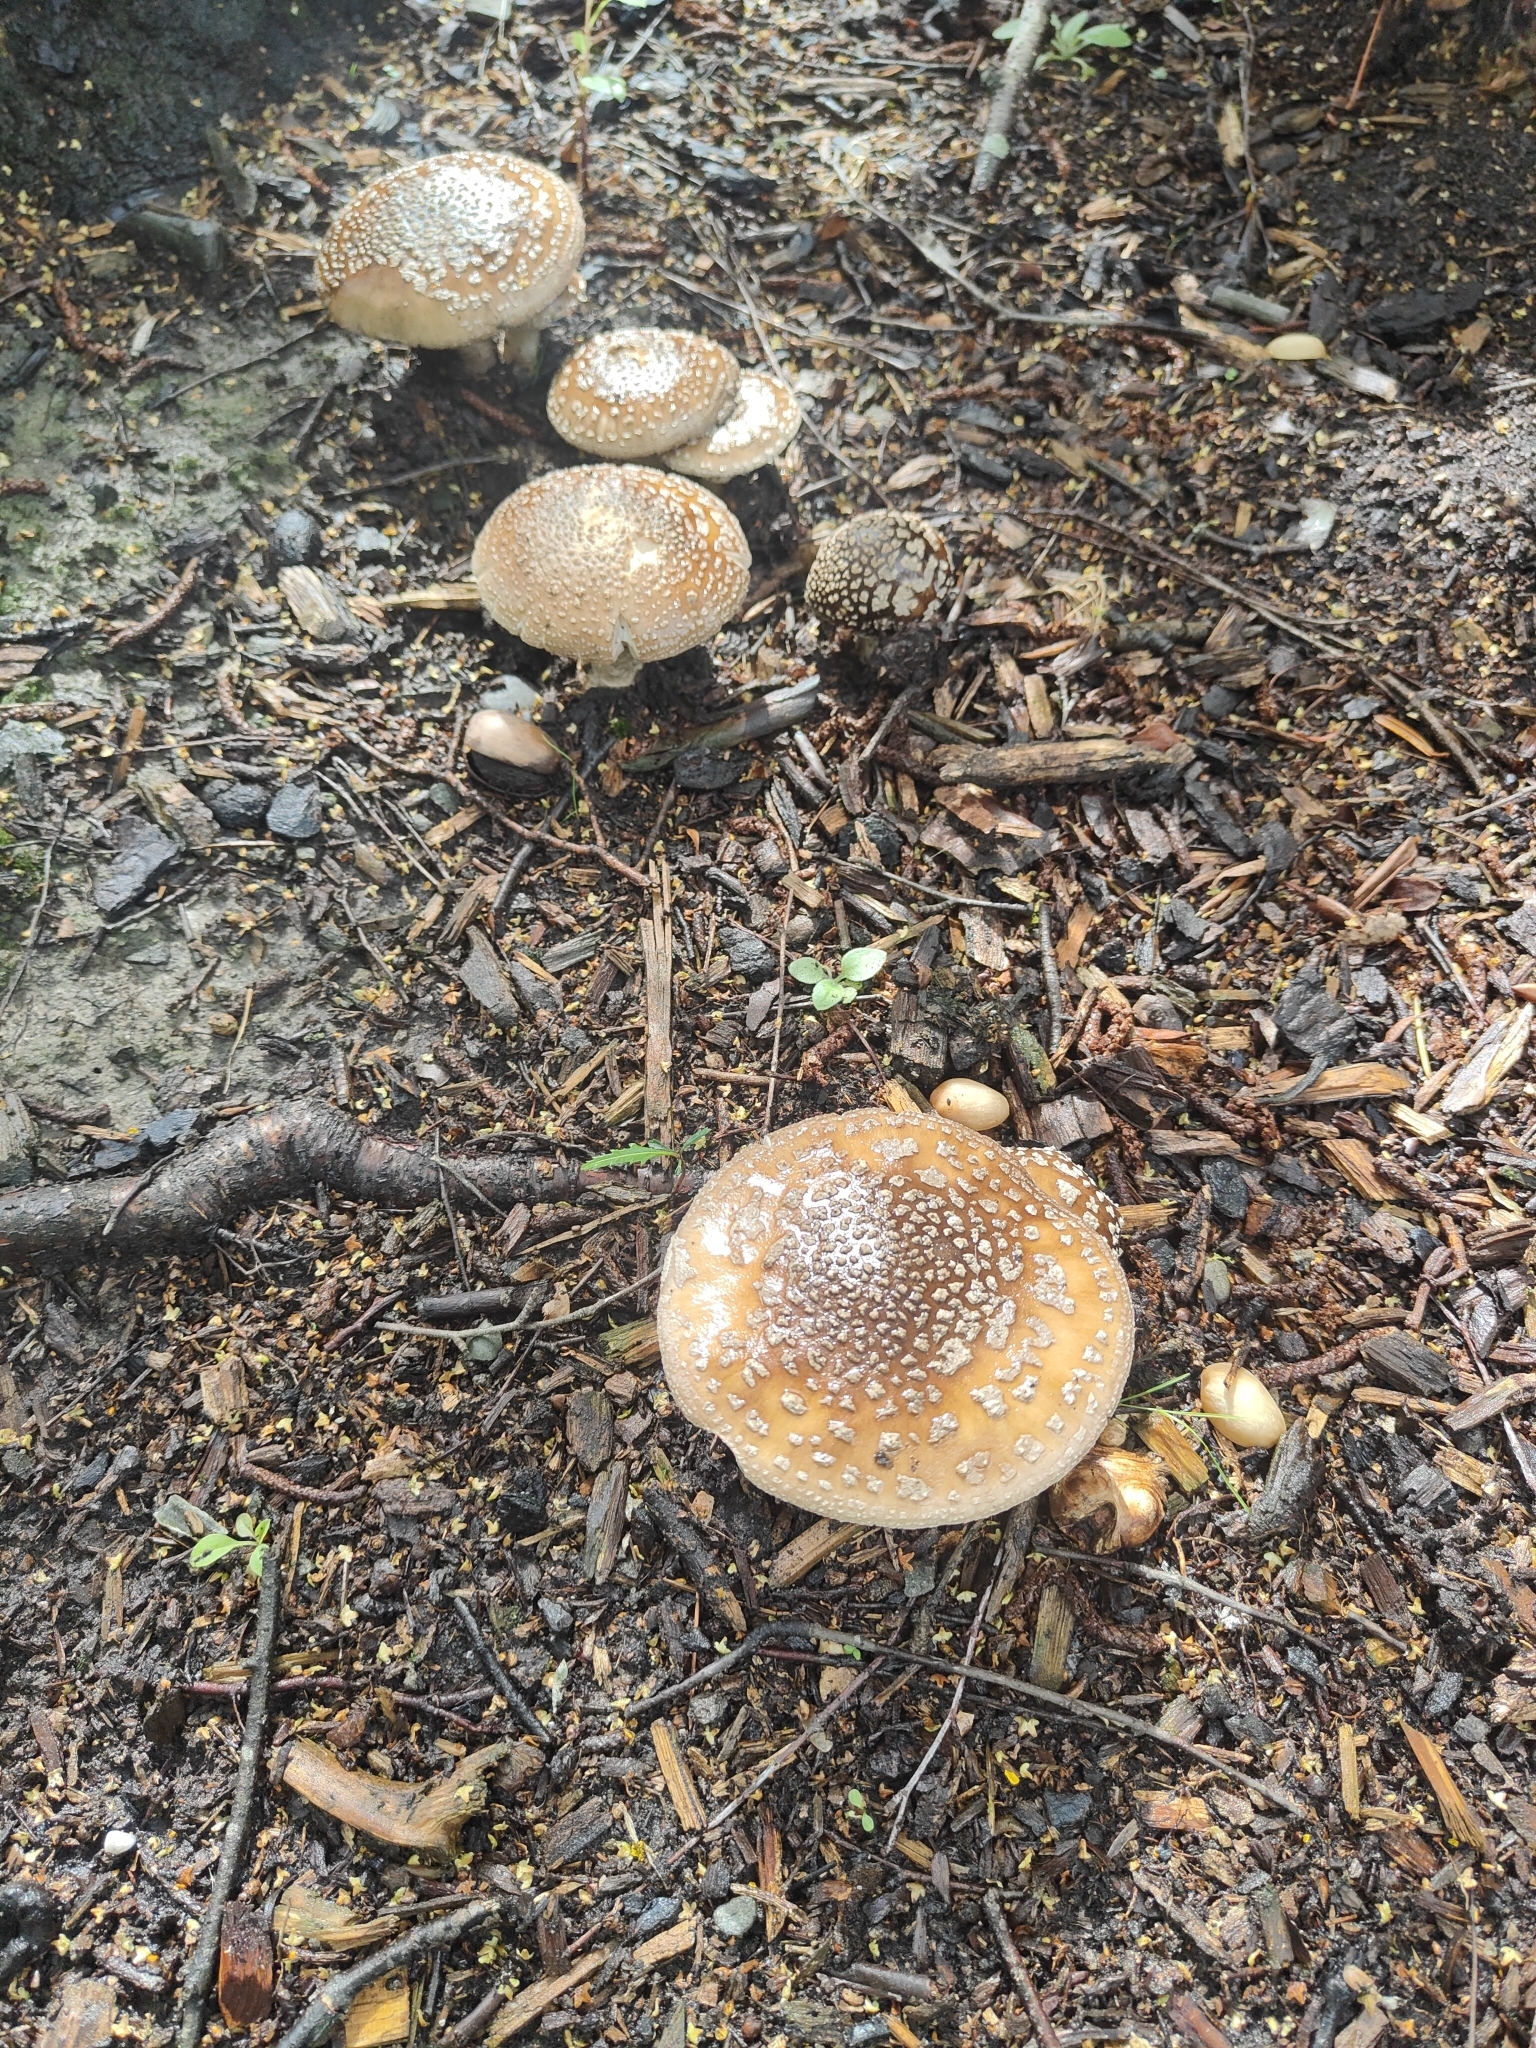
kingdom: Fungi
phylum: Basidiomycota
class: Agaricomycetes
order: Agaricales
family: Amanitaceae
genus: Amanita
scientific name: Amanita muscaria
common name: Fly agaric
